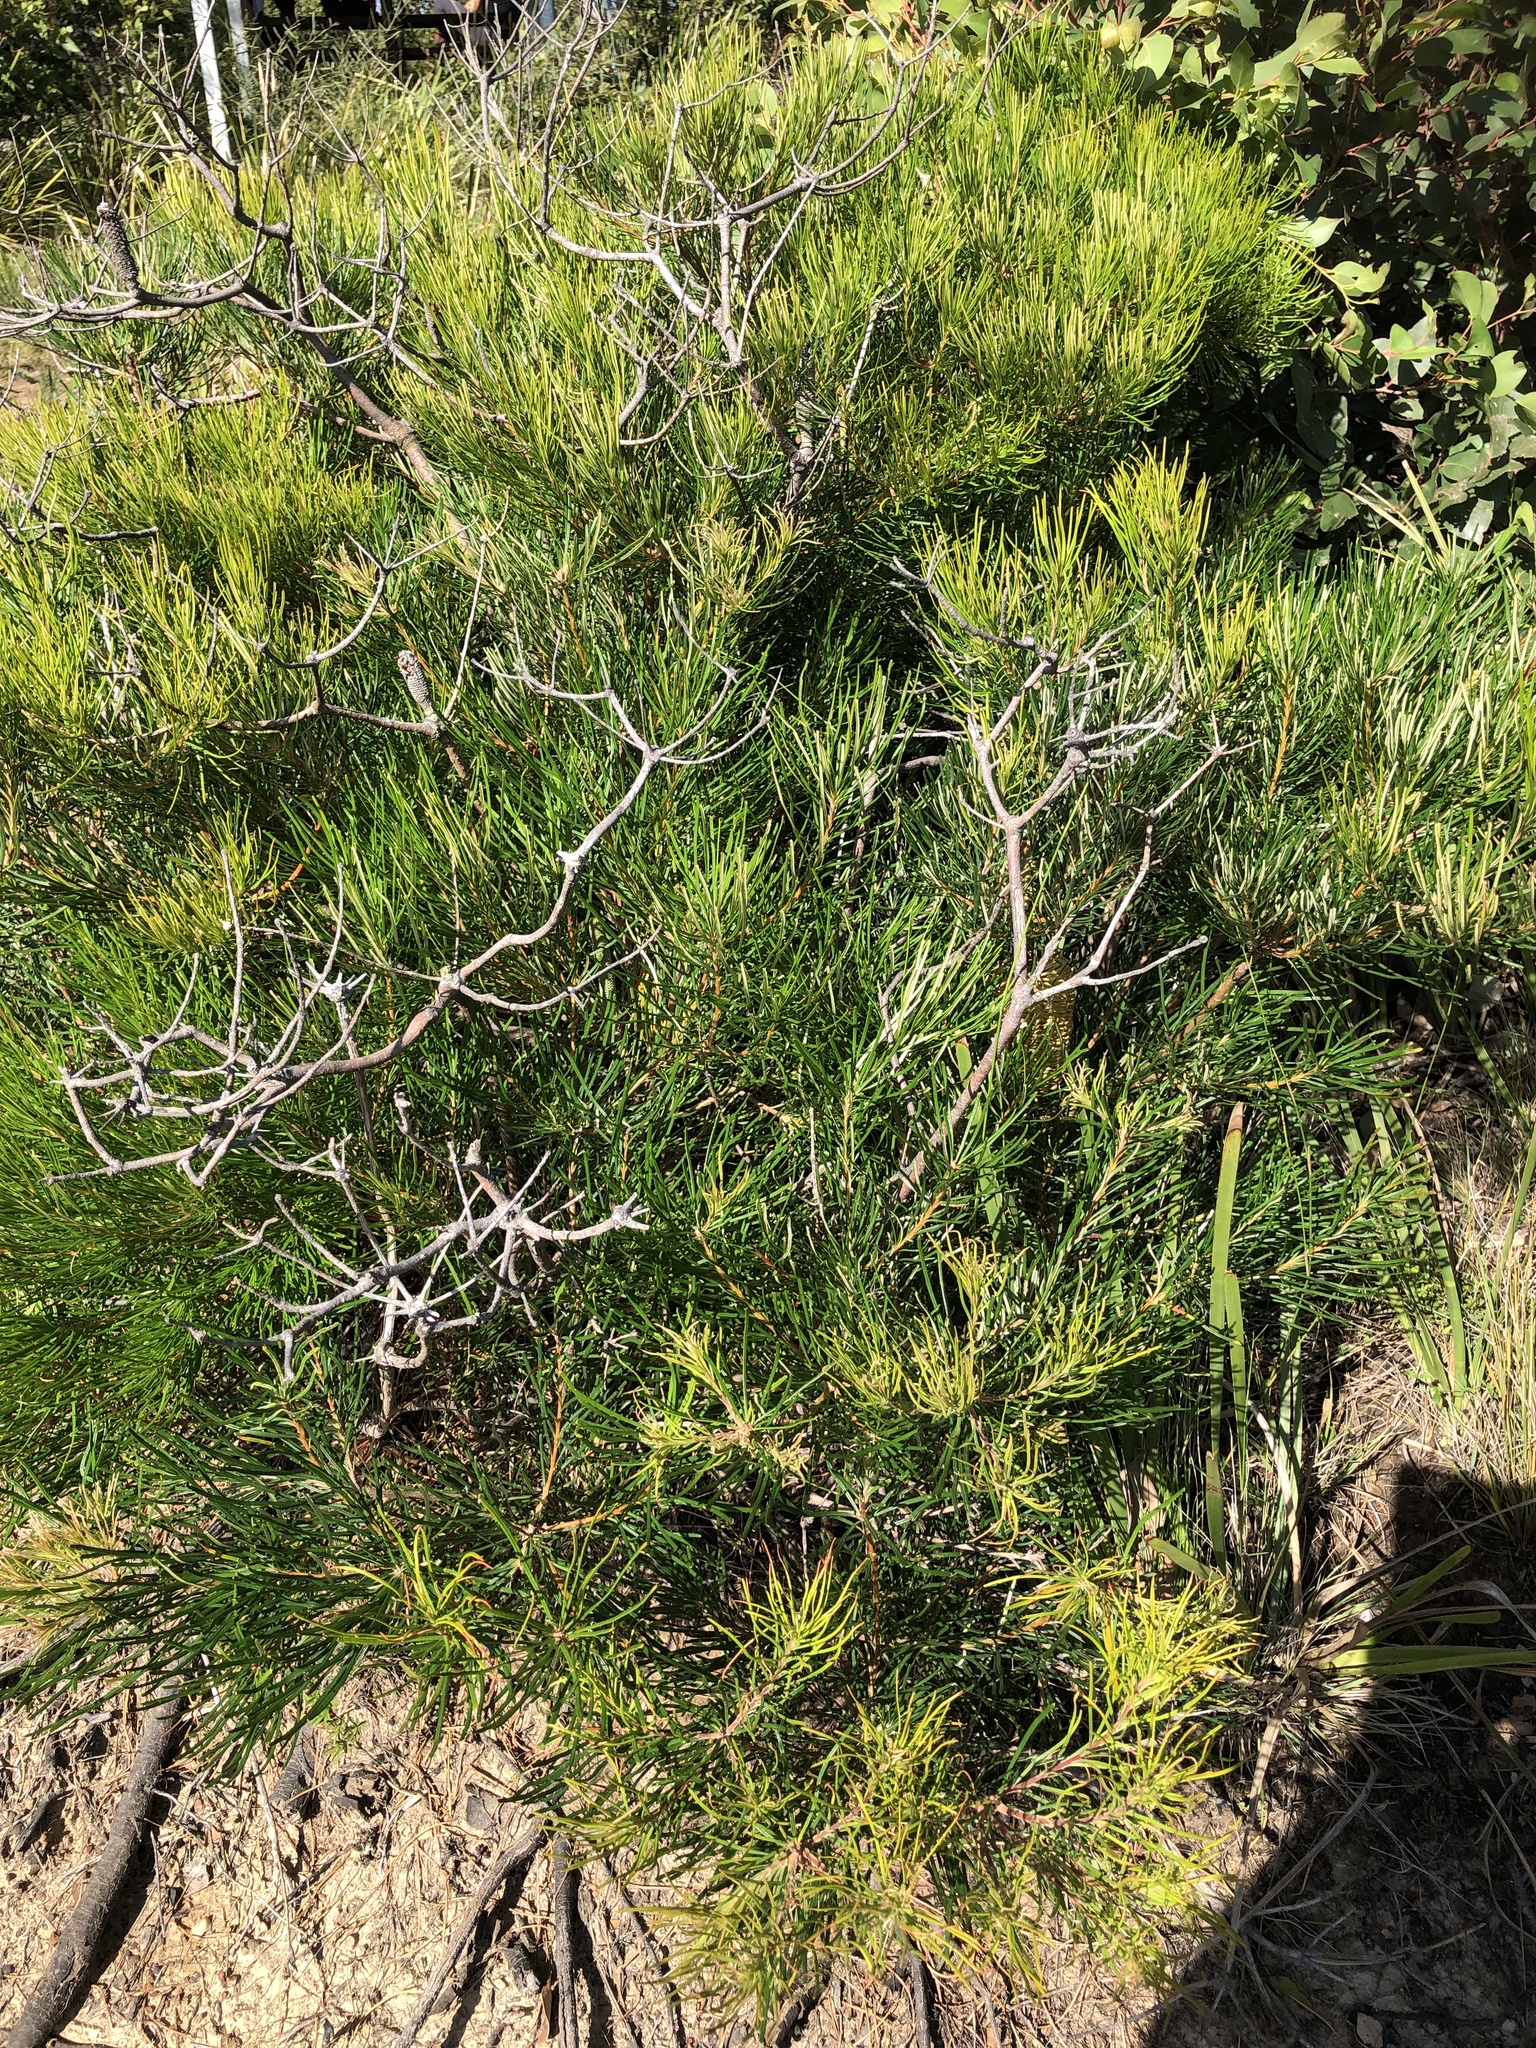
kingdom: Plantae
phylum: Tracheophyta
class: Magnoliopsida
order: Proteales
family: Proteaceae
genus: Banksia
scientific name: Banksia spinulosa
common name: Hairpin banksia
